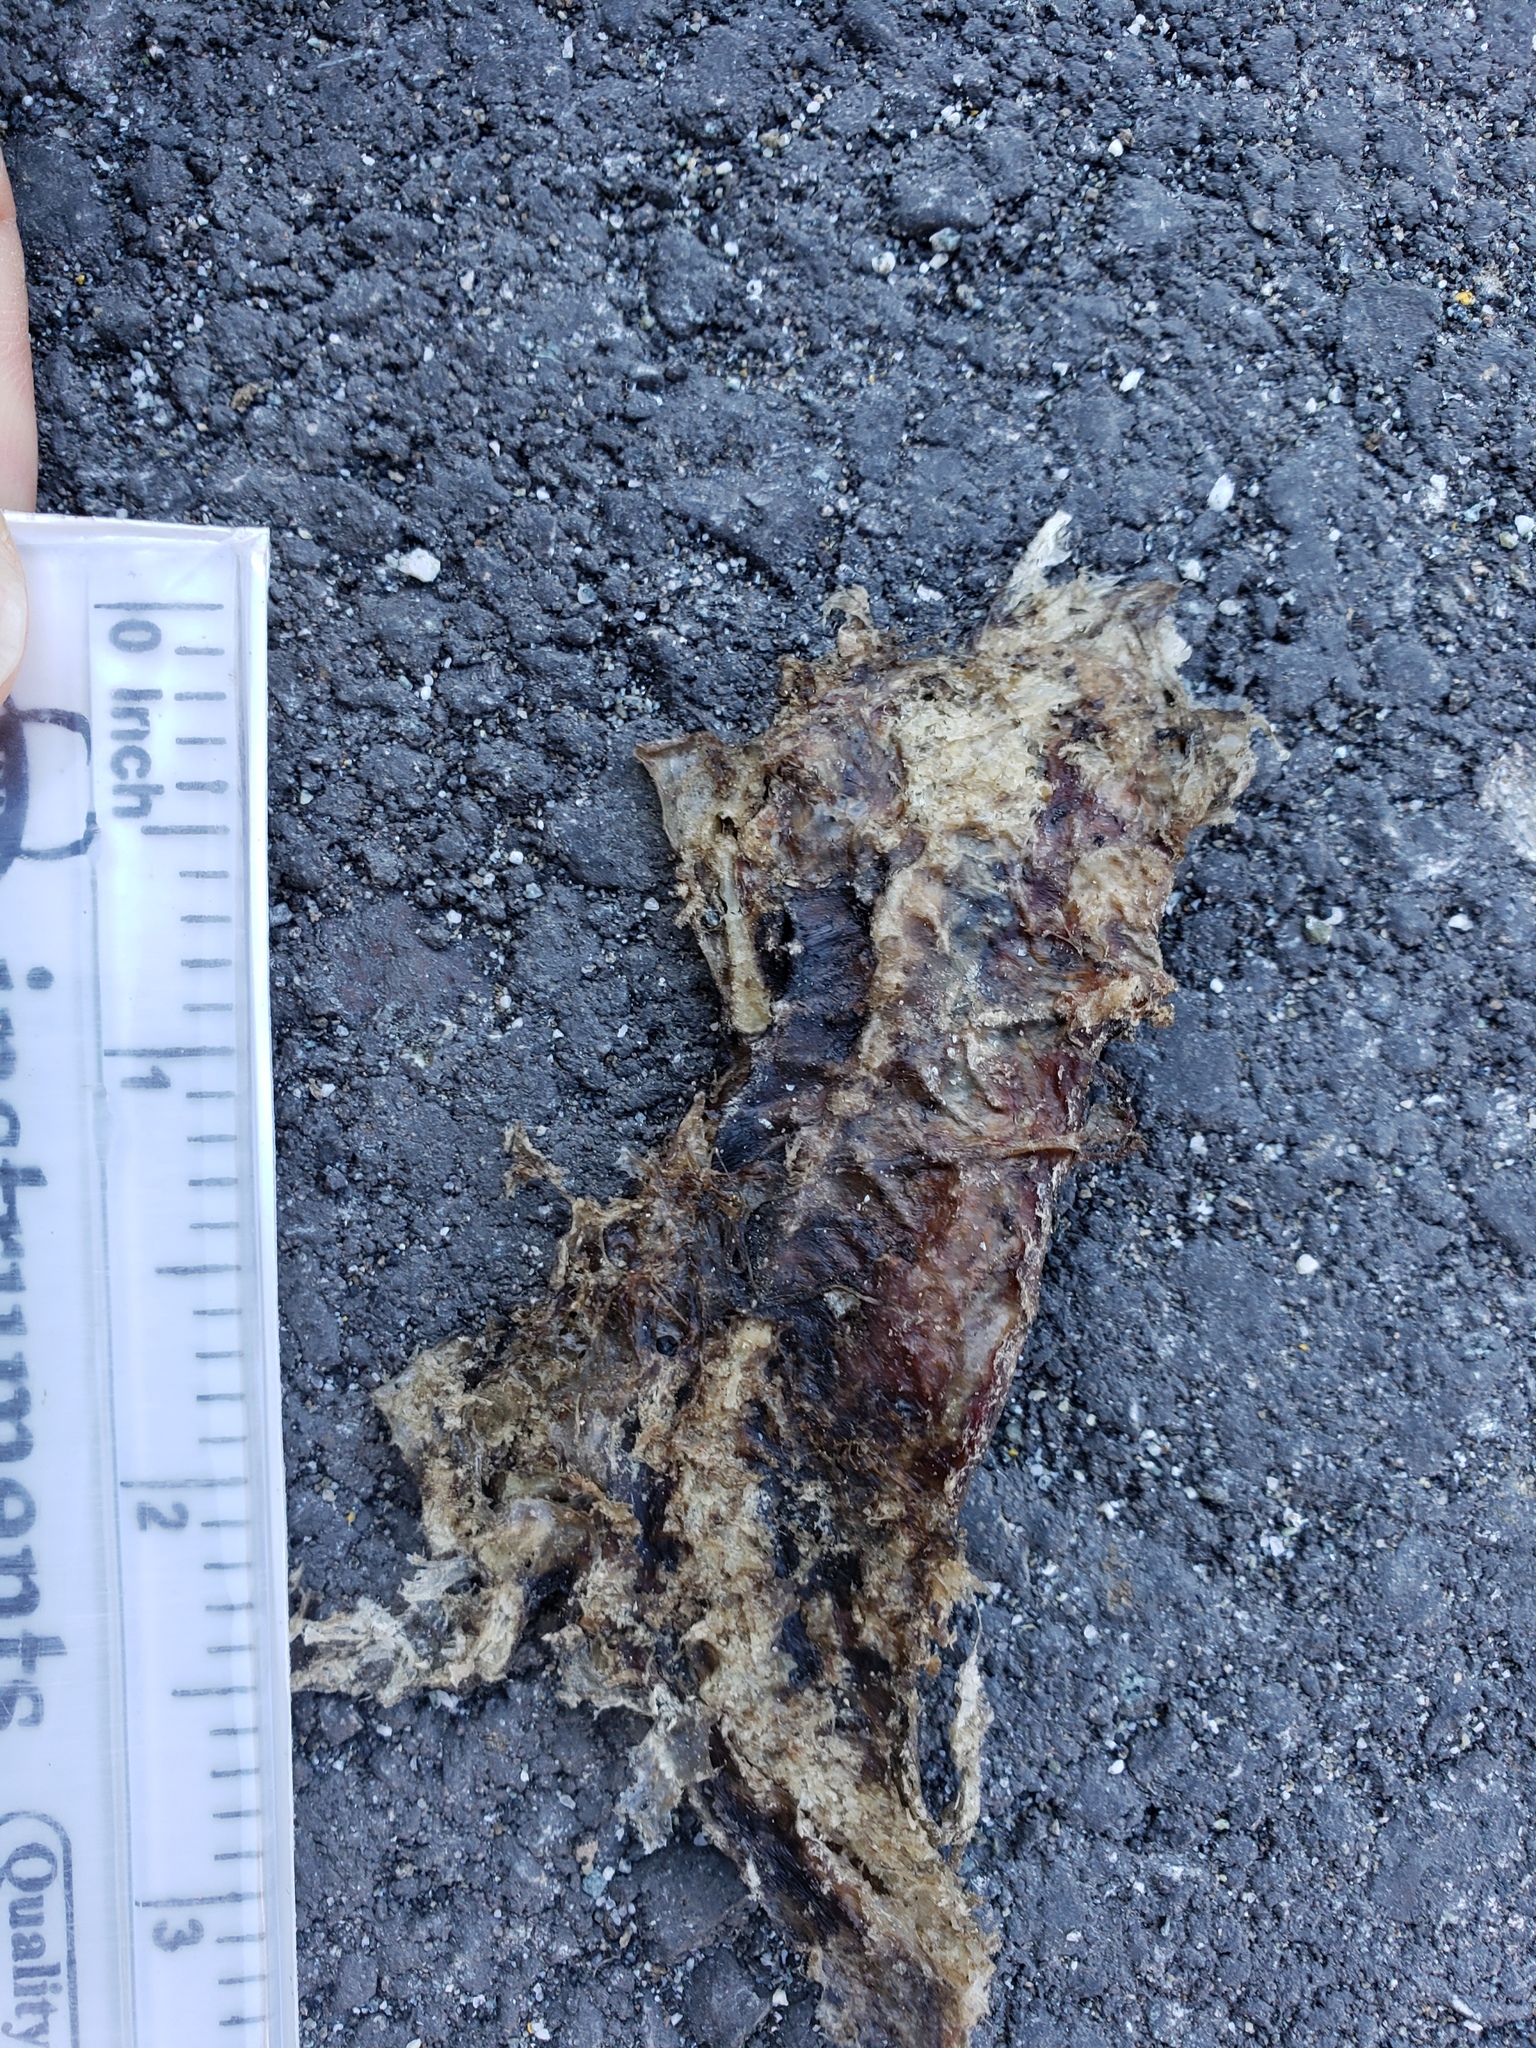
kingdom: Animalia
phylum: Chordata
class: Amphibia
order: Caudata
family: Salamandridae
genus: Taricha
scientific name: Taricha
